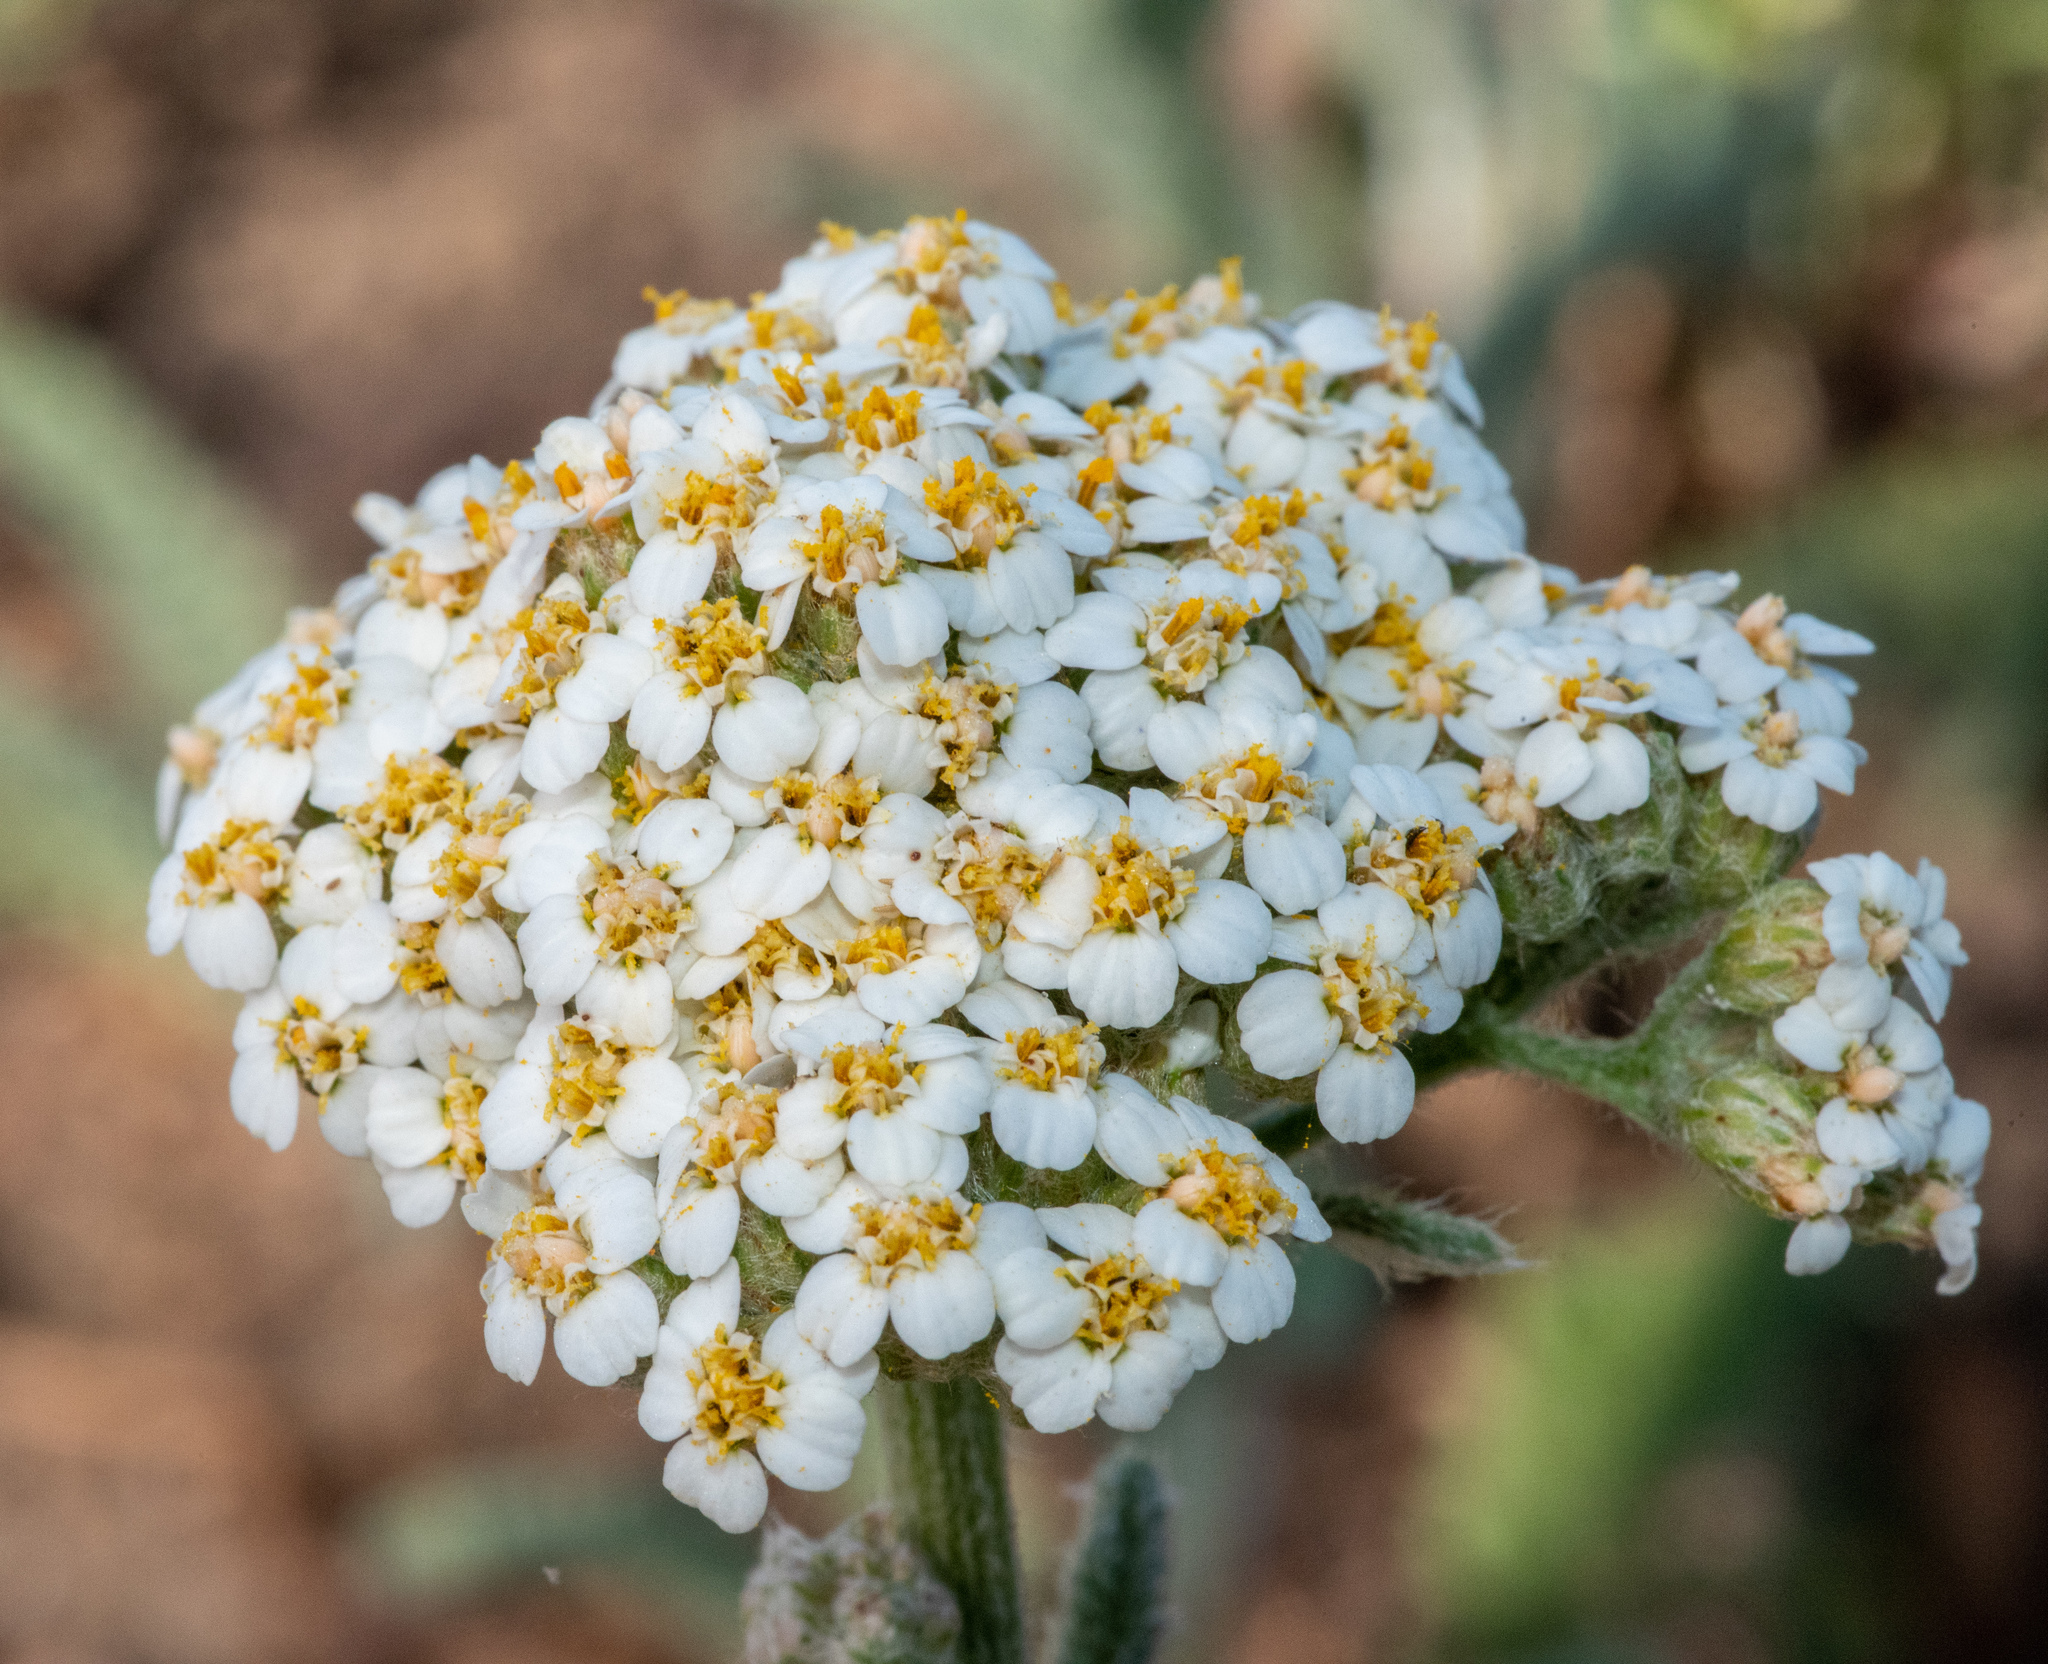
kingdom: Plantae
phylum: Tracheophyta
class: Magnoliopsida
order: Asterales
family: Asteraceae
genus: Achillea
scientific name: Achillea millefolium
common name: Yarrow
